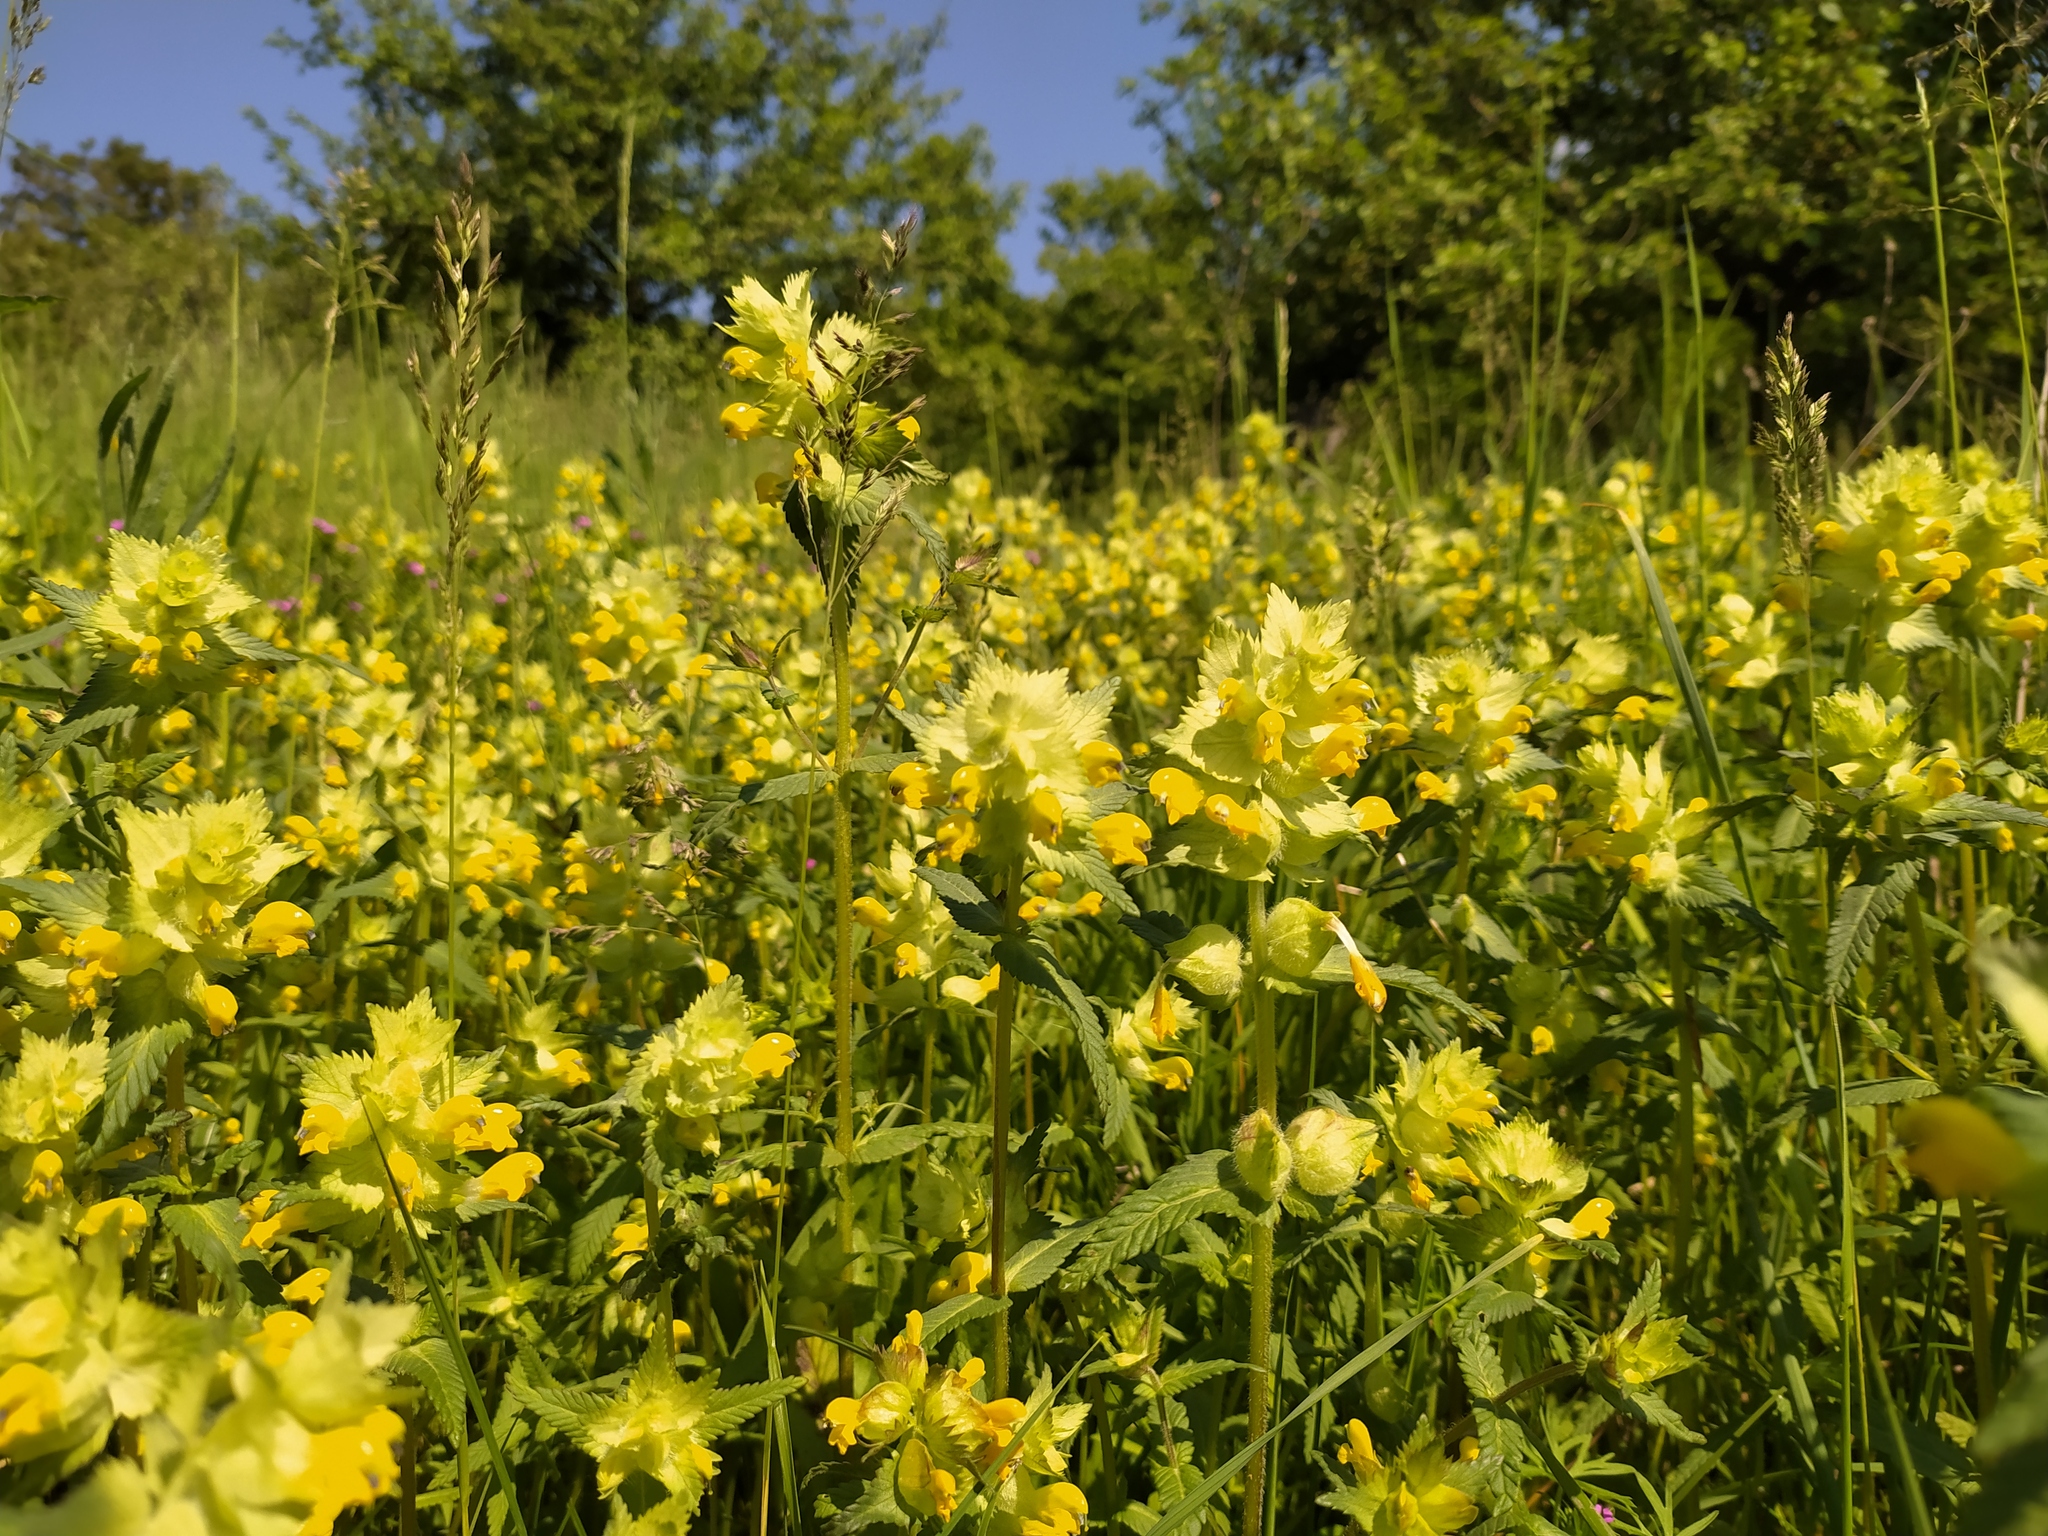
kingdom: Plantae
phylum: Tracheophyta
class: Magnoliopsida
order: Lamiales
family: Orobanchaceae
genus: Rhinanthus
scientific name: Rhinanthus alectorolophus
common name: Greater yellow-rattle
